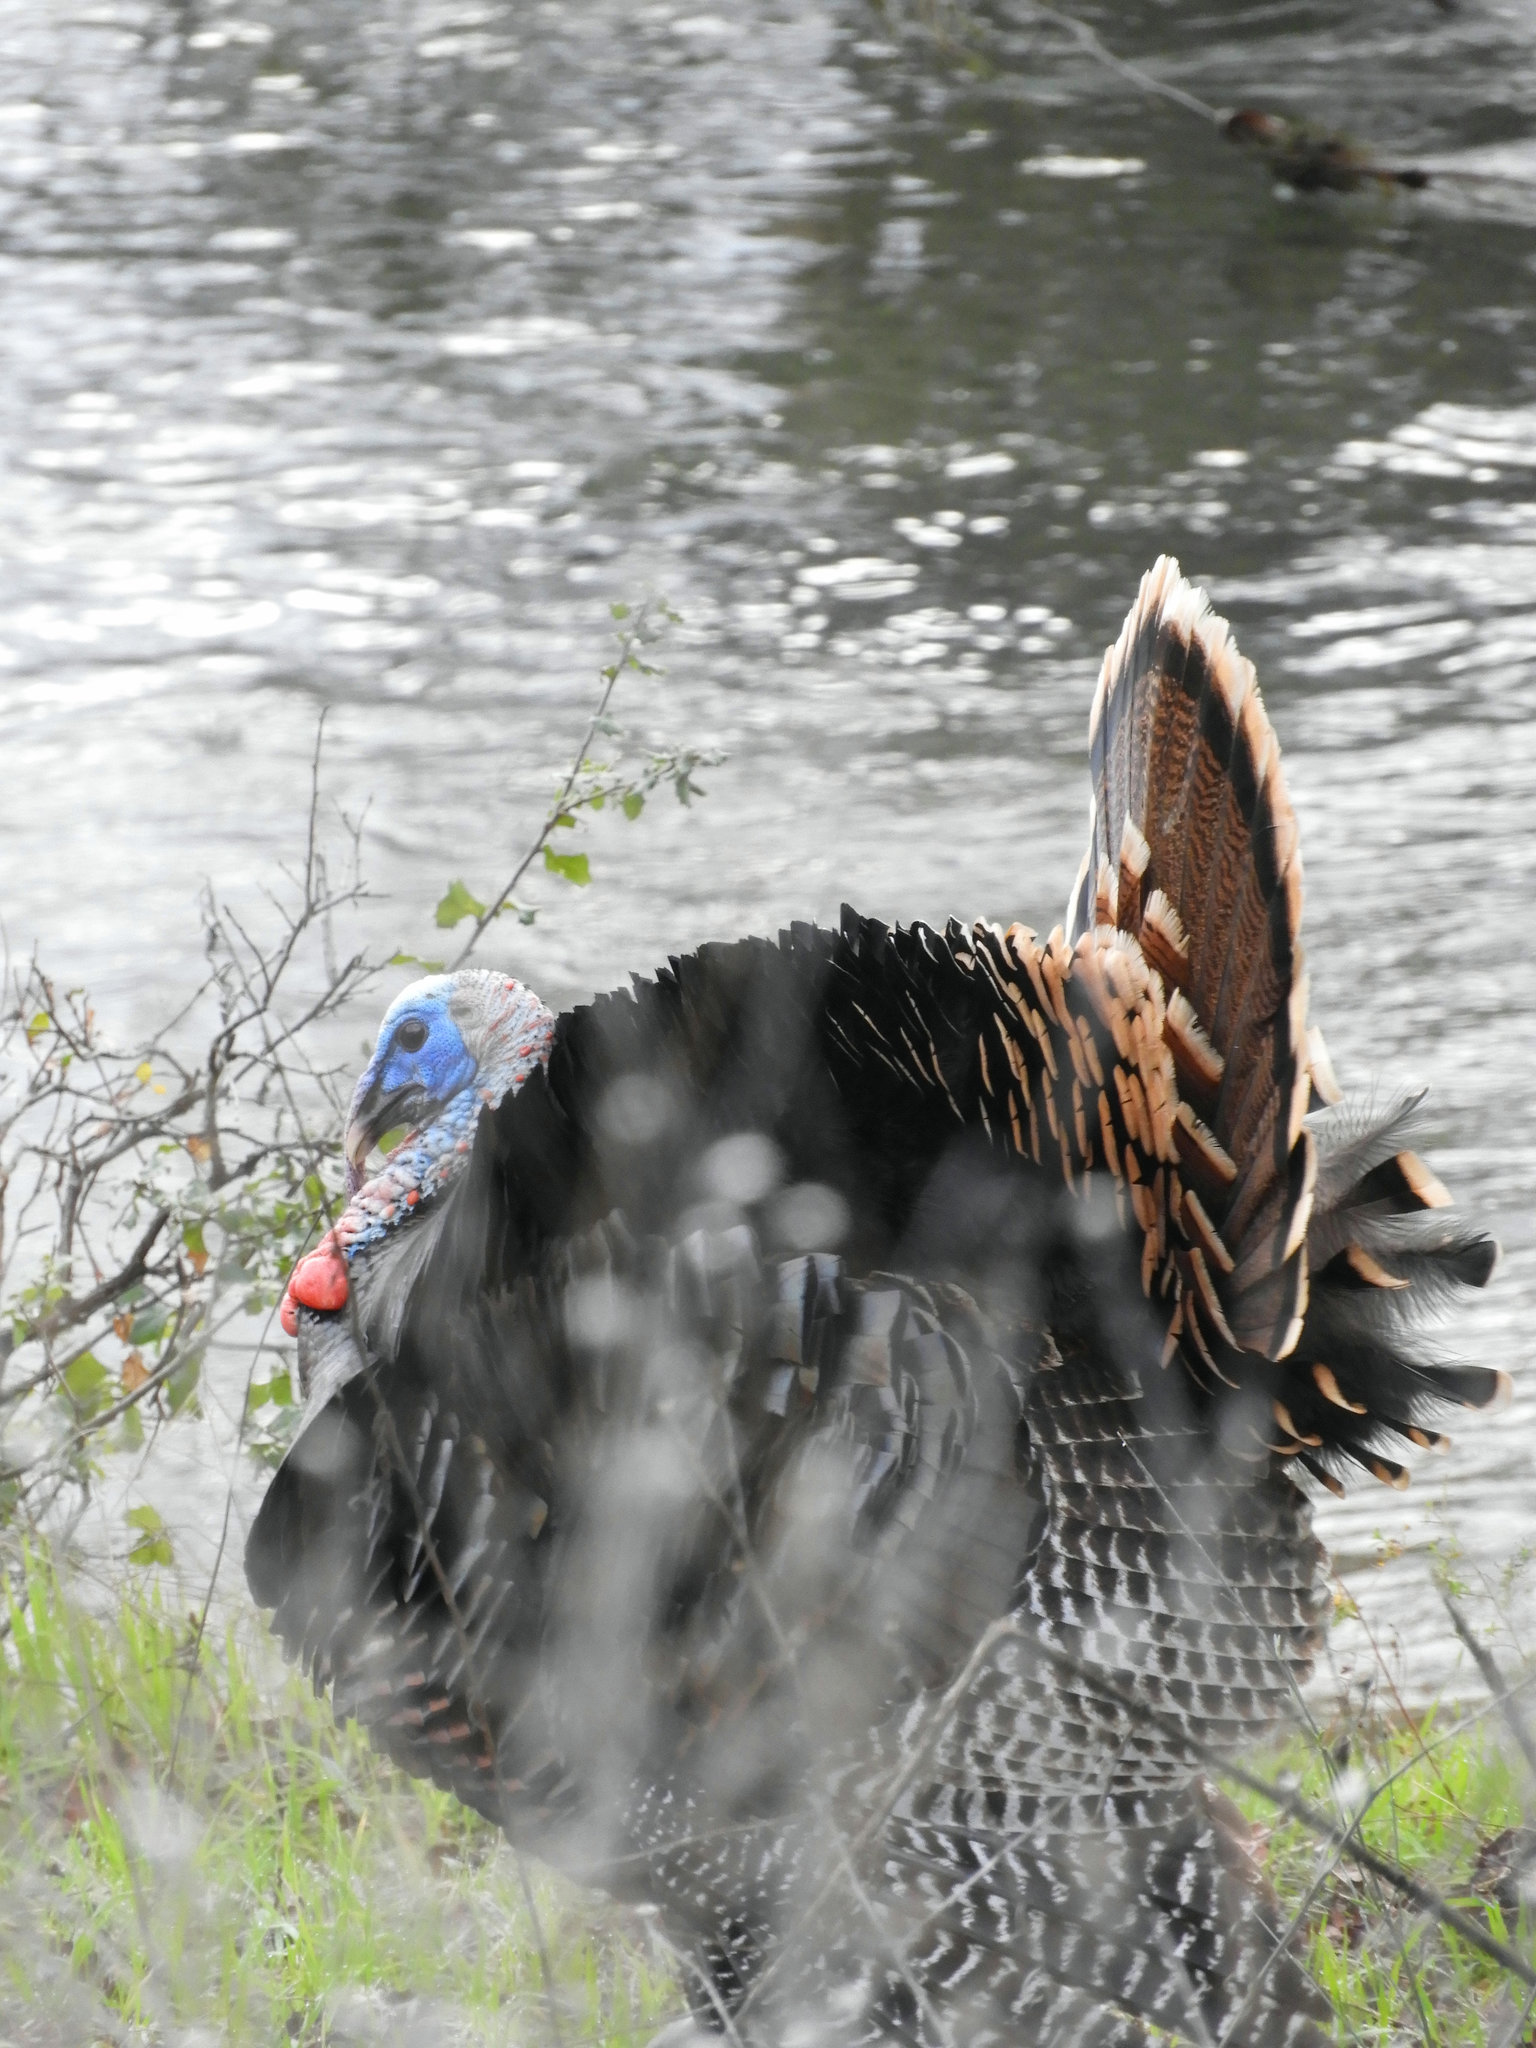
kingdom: Animalia
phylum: Chordata
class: Aves
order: Galliformes
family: Phasianidae
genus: Meleagris
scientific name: Meleagris gallopavo
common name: Wild turkey
